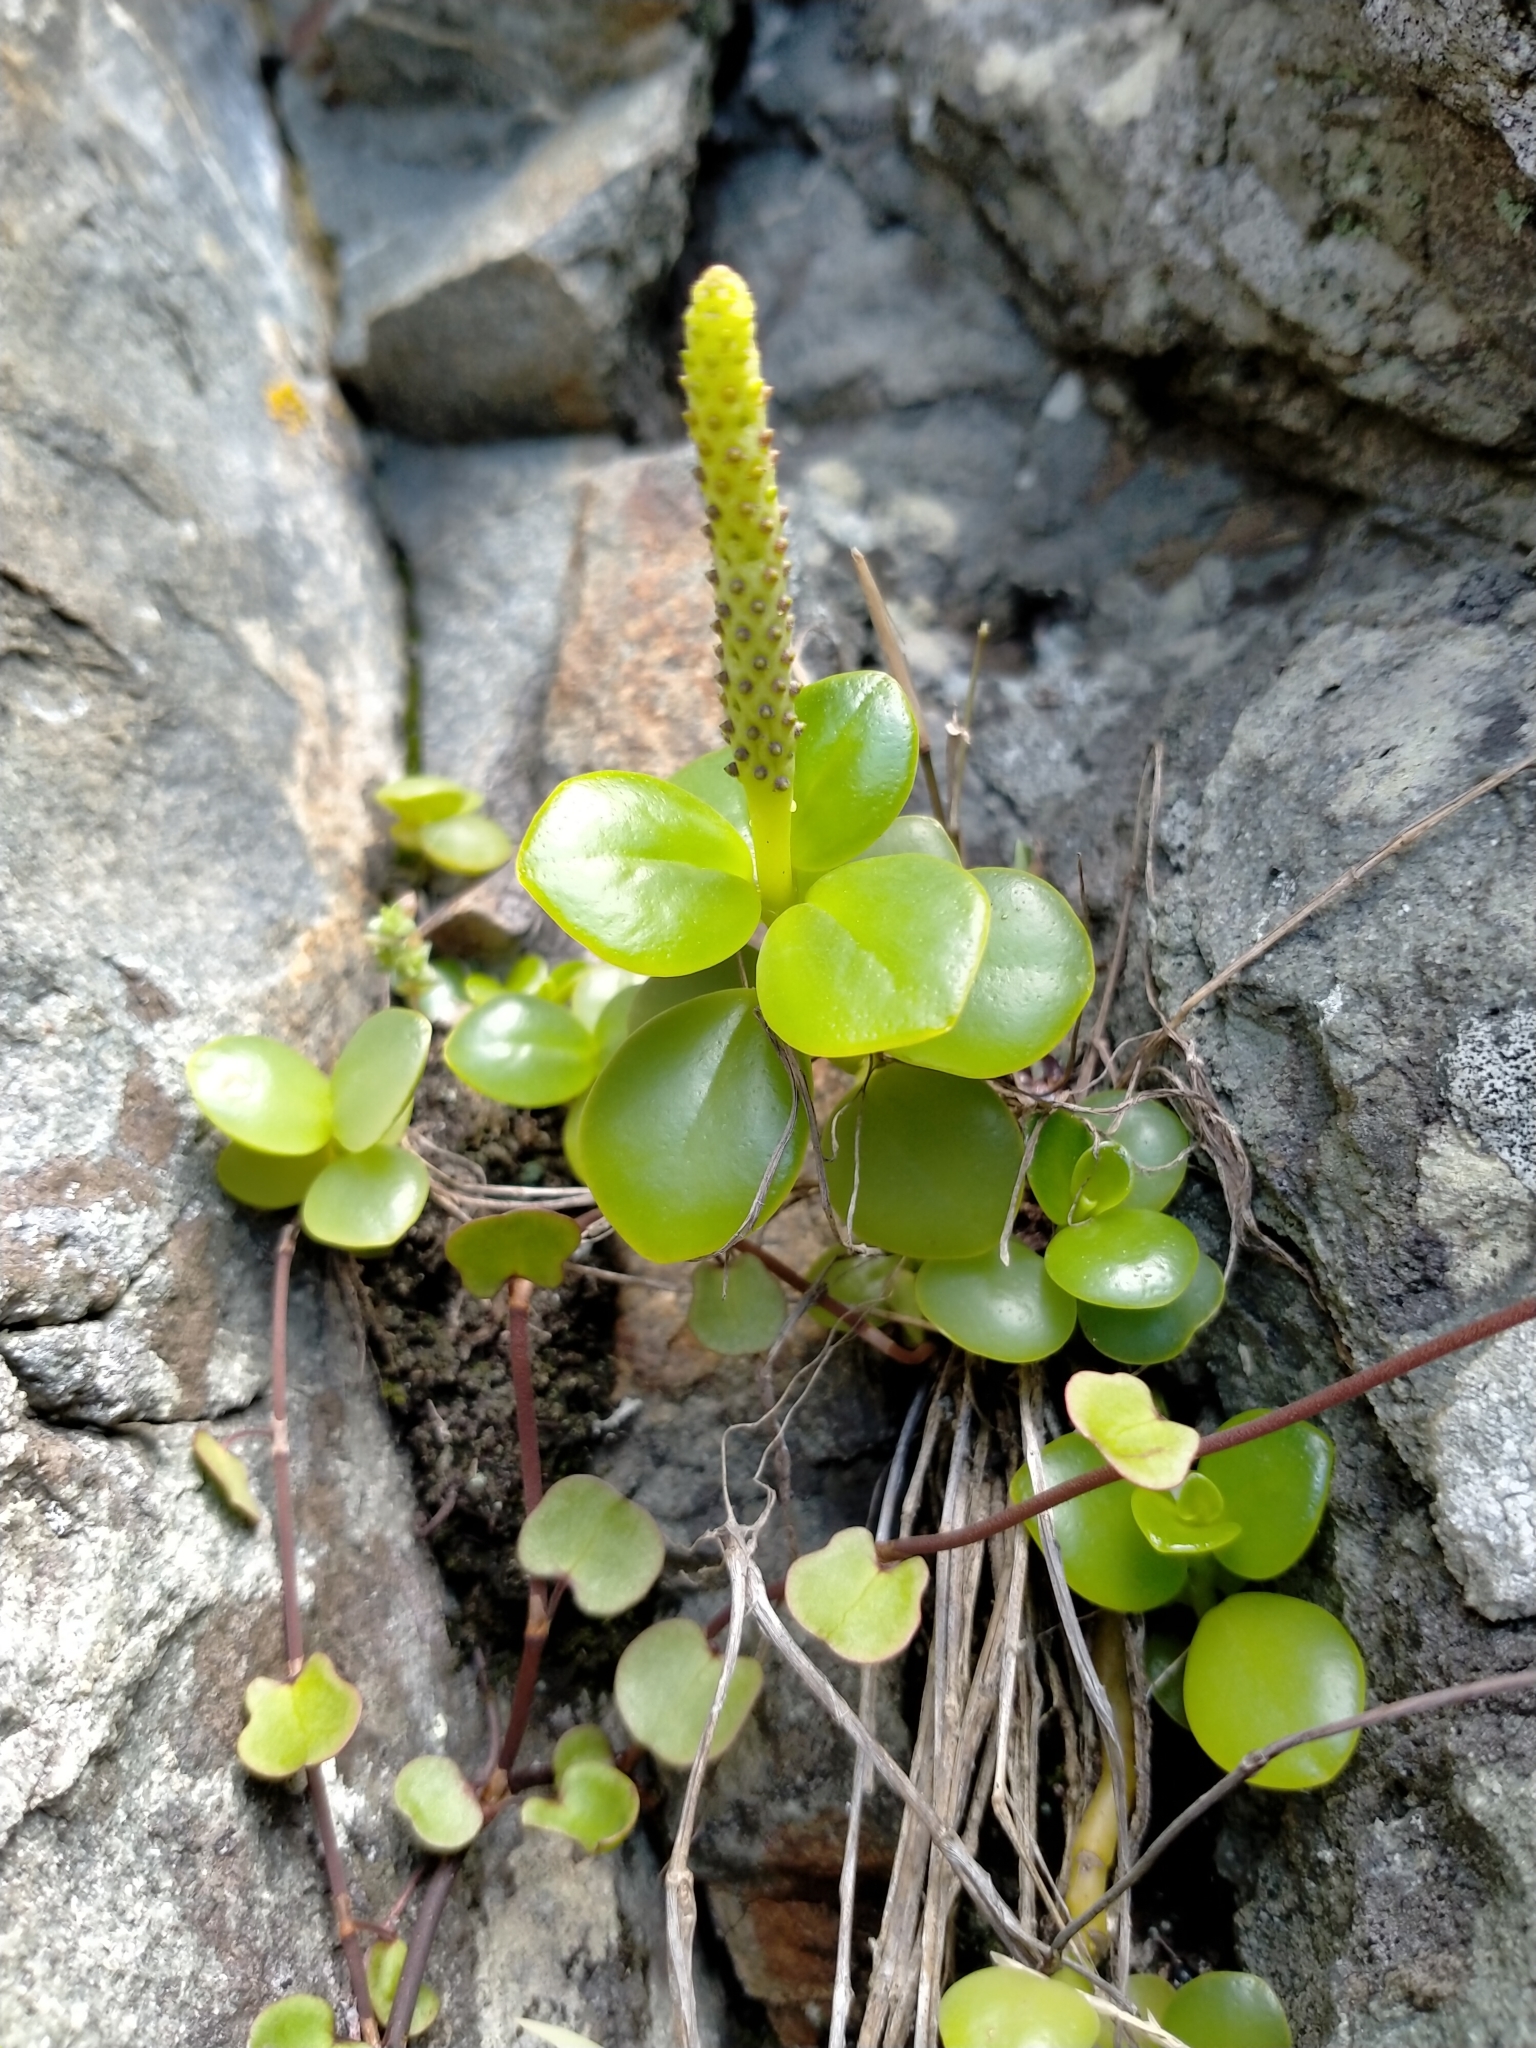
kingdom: Plantae
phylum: Tracheophyta
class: Magnoliopsida
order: Piperales
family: Piperaceae
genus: Peperomia
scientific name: Peperomia urvilleana
